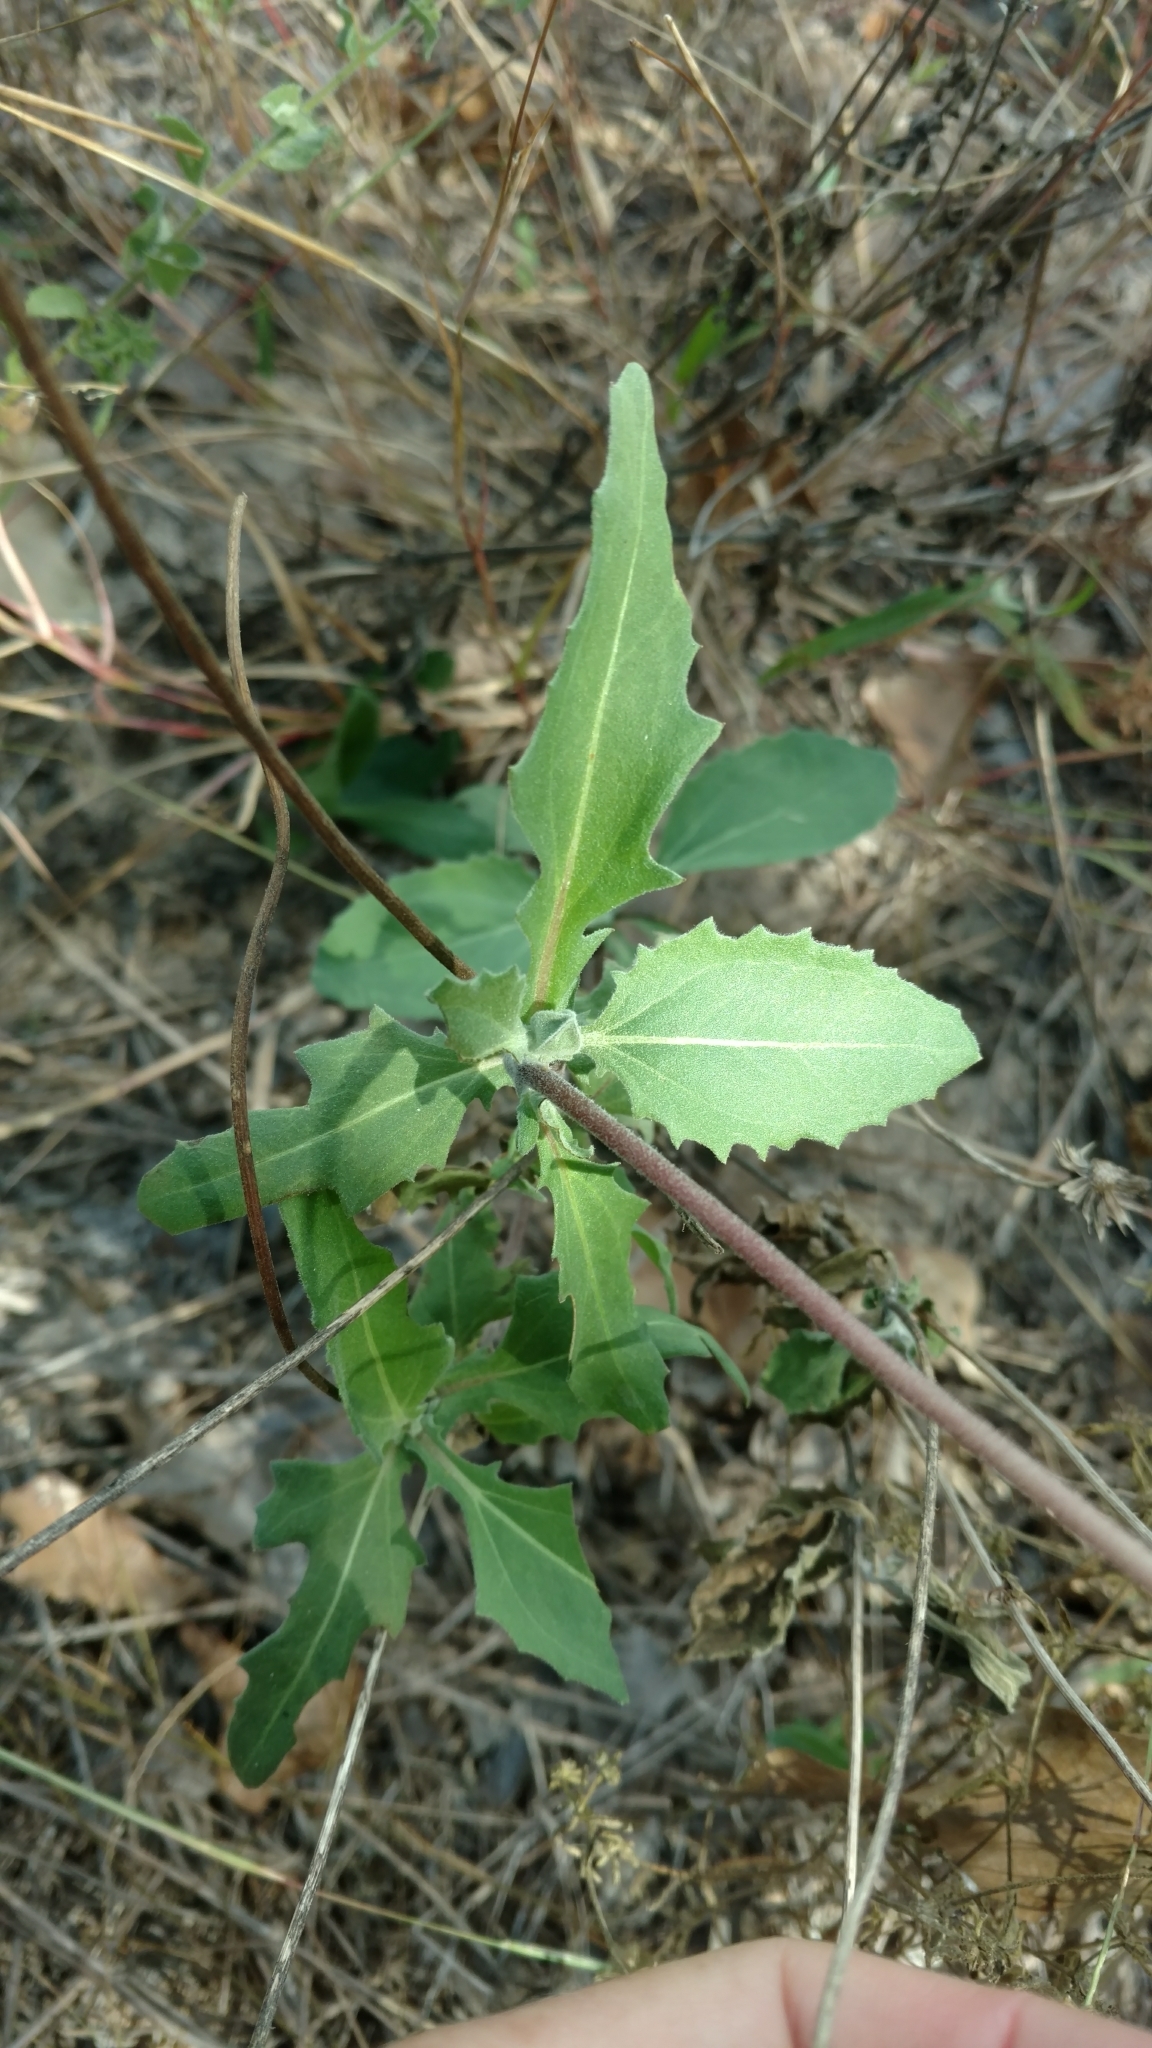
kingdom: Plantae
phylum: Tracheophyta
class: Magnoliopsida
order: Asterales
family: Asteraceae
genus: Tetragonotheca
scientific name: Tetragonotheca repanda
